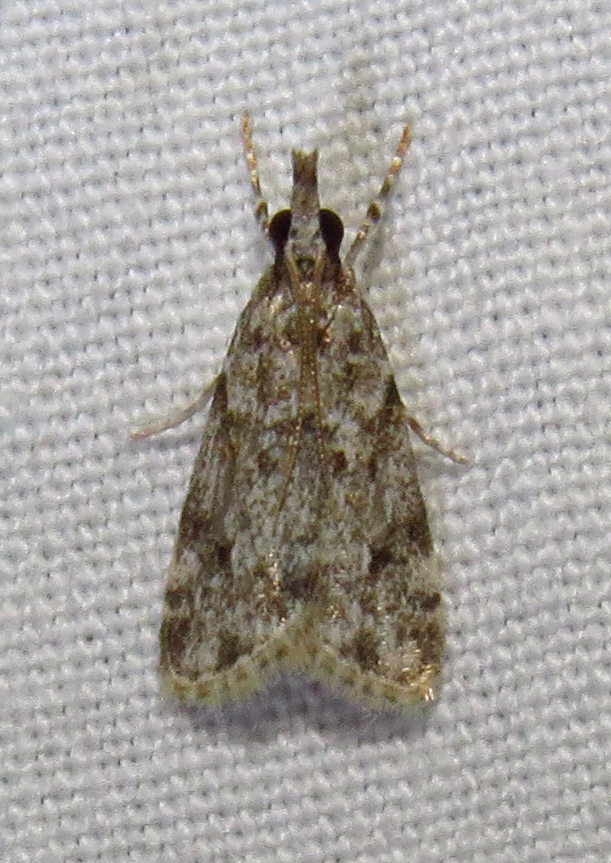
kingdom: Animalia
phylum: Arthropoda
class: Insecta
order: Lepidoptera
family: Crambidae
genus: Eudonia
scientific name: Eudonia heterosalis
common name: Mcdunnough's eudonia
